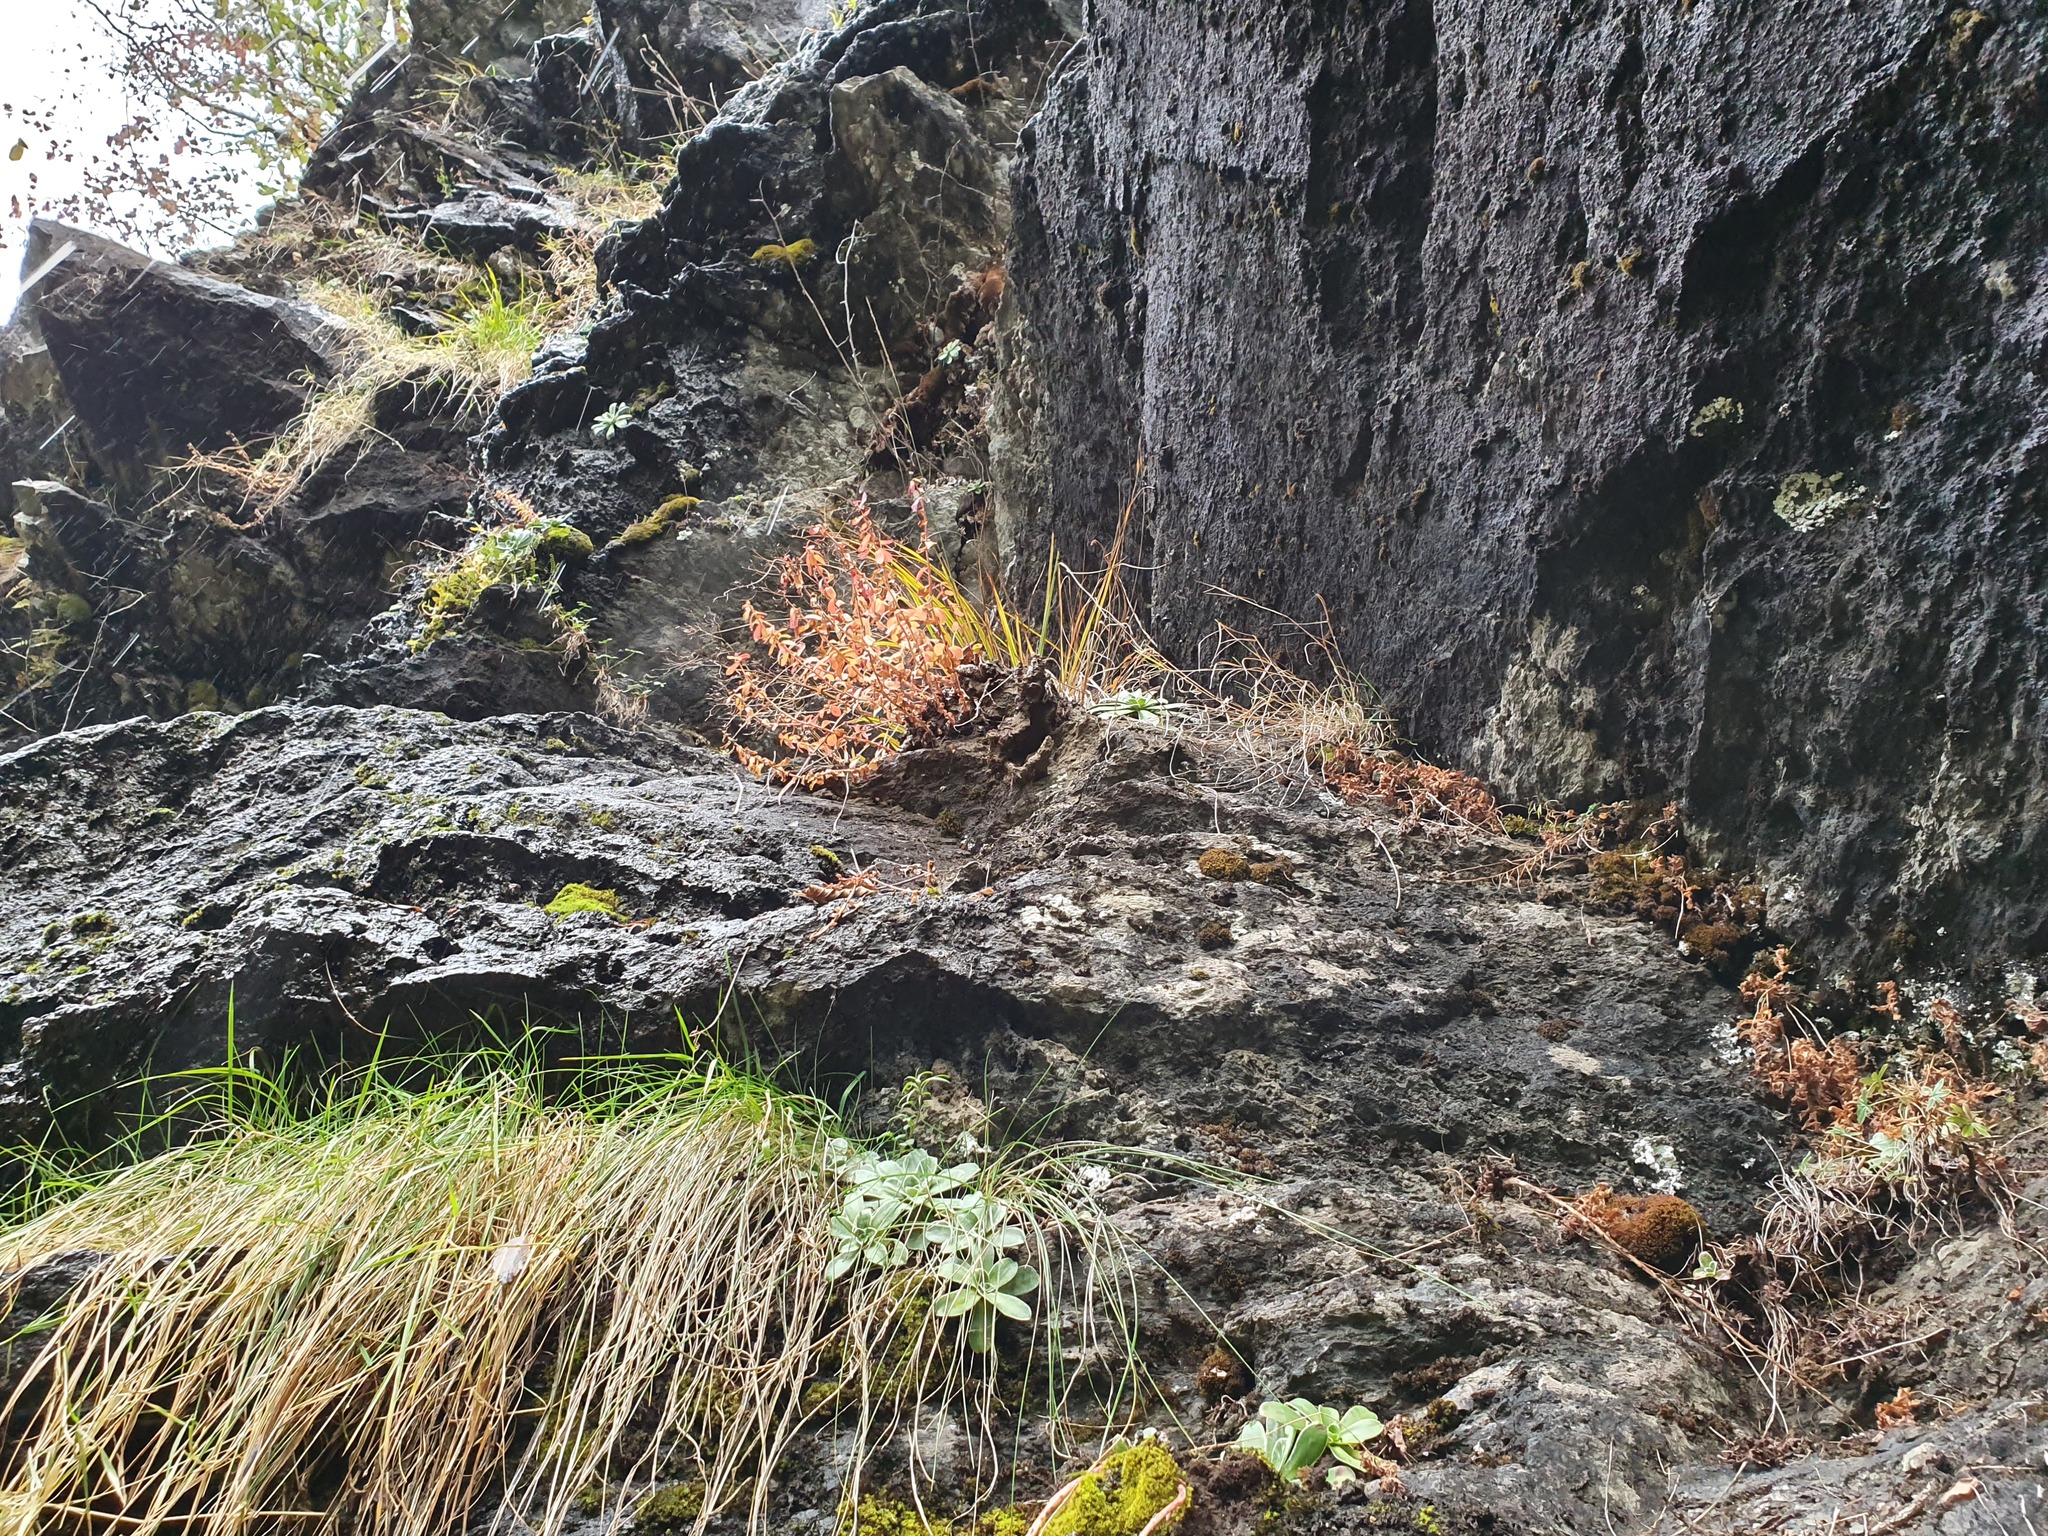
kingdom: Plantae
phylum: Tracheophyta
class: Magnoliopsida
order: Saxifragales
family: Crassulaceae
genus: Rhodiola
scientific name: Rhodiola rosea
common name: Roseroot
